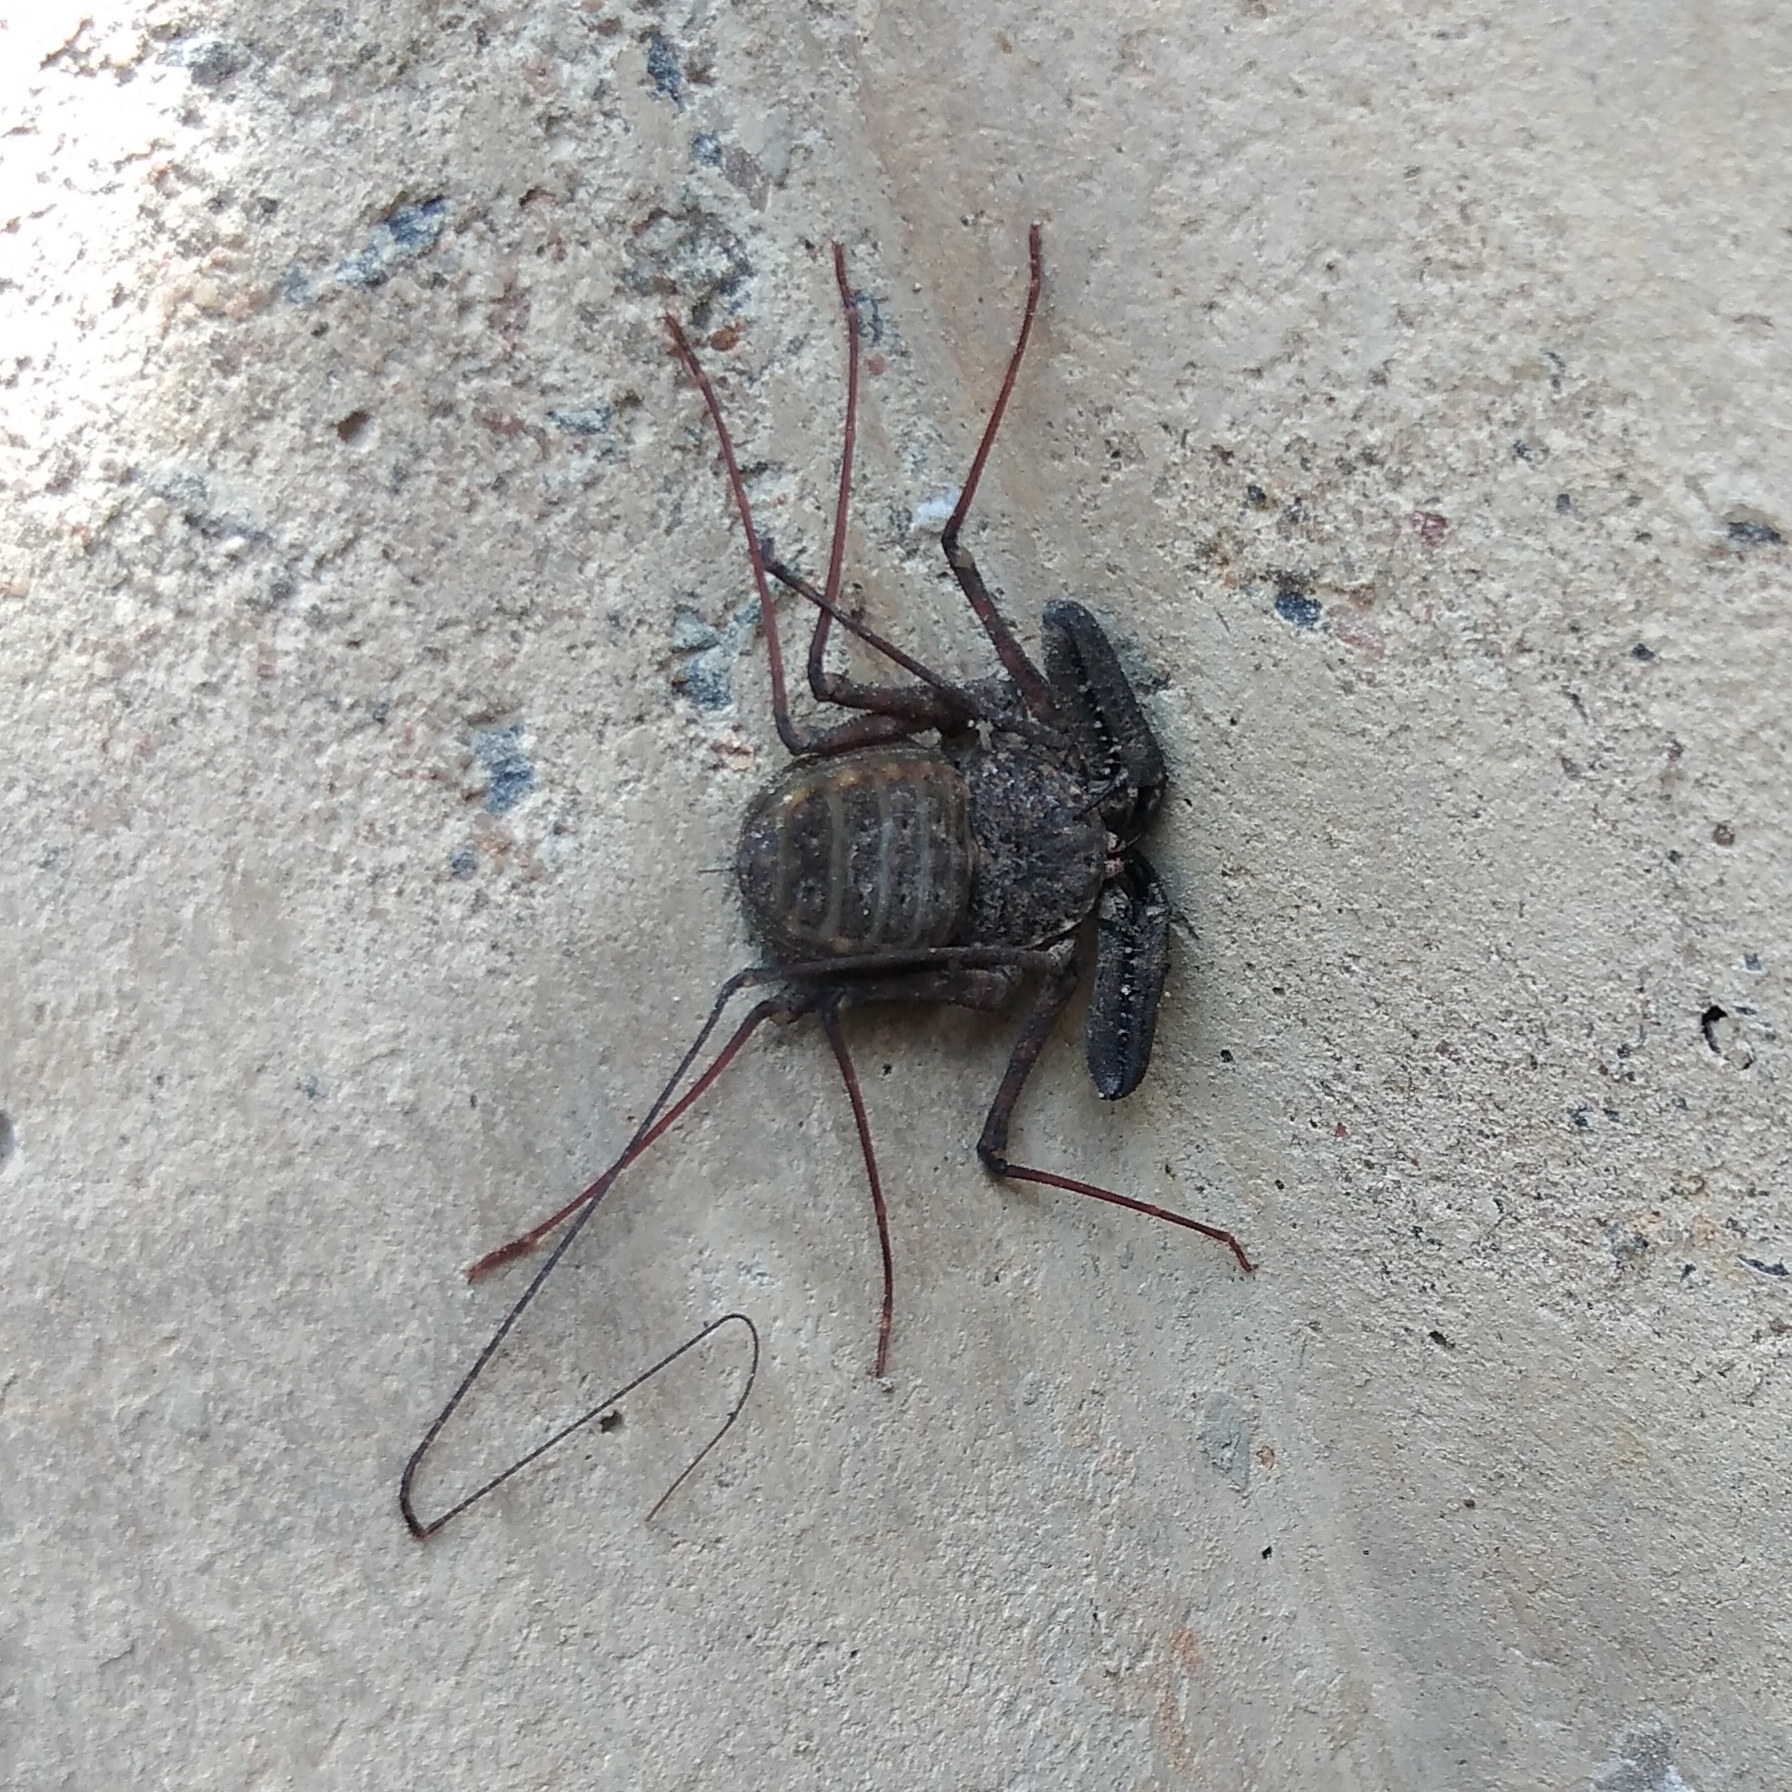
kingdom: Animalia
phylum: Arthropoda
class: Arachnida
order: Amblypygi
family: Phrynichidae
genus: Damon
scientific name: Damon annulatipes
